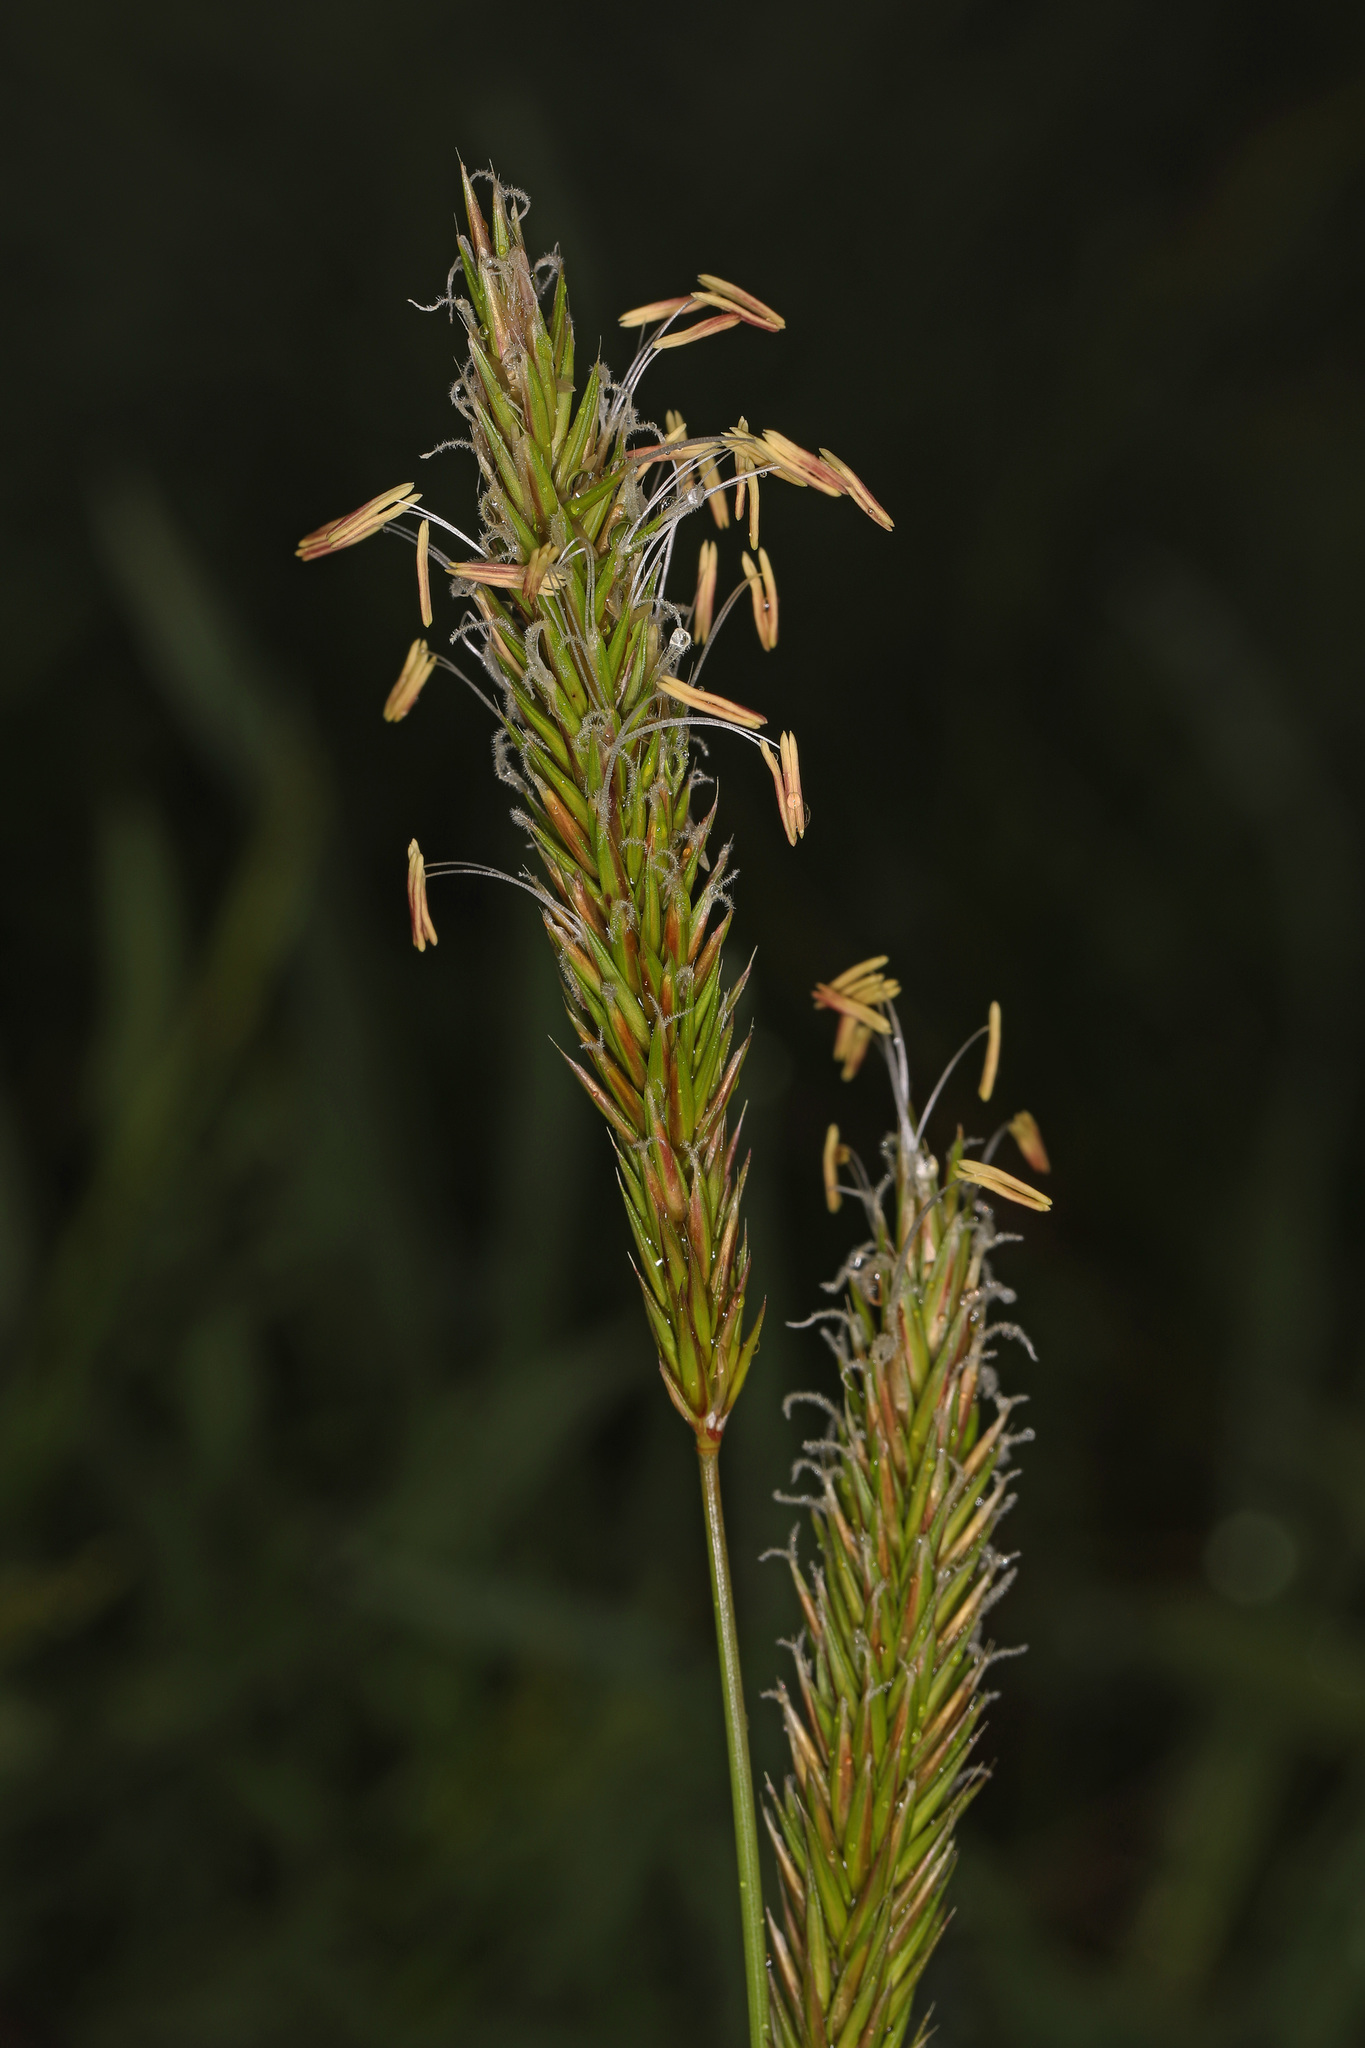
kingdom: Plantae
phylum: Tracheophyta
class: Liliopsida
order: Poales
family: Poaceae
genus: Anthoxanthum
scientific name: Anthoxanthum odoratum
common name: Sweet vernalgrass
